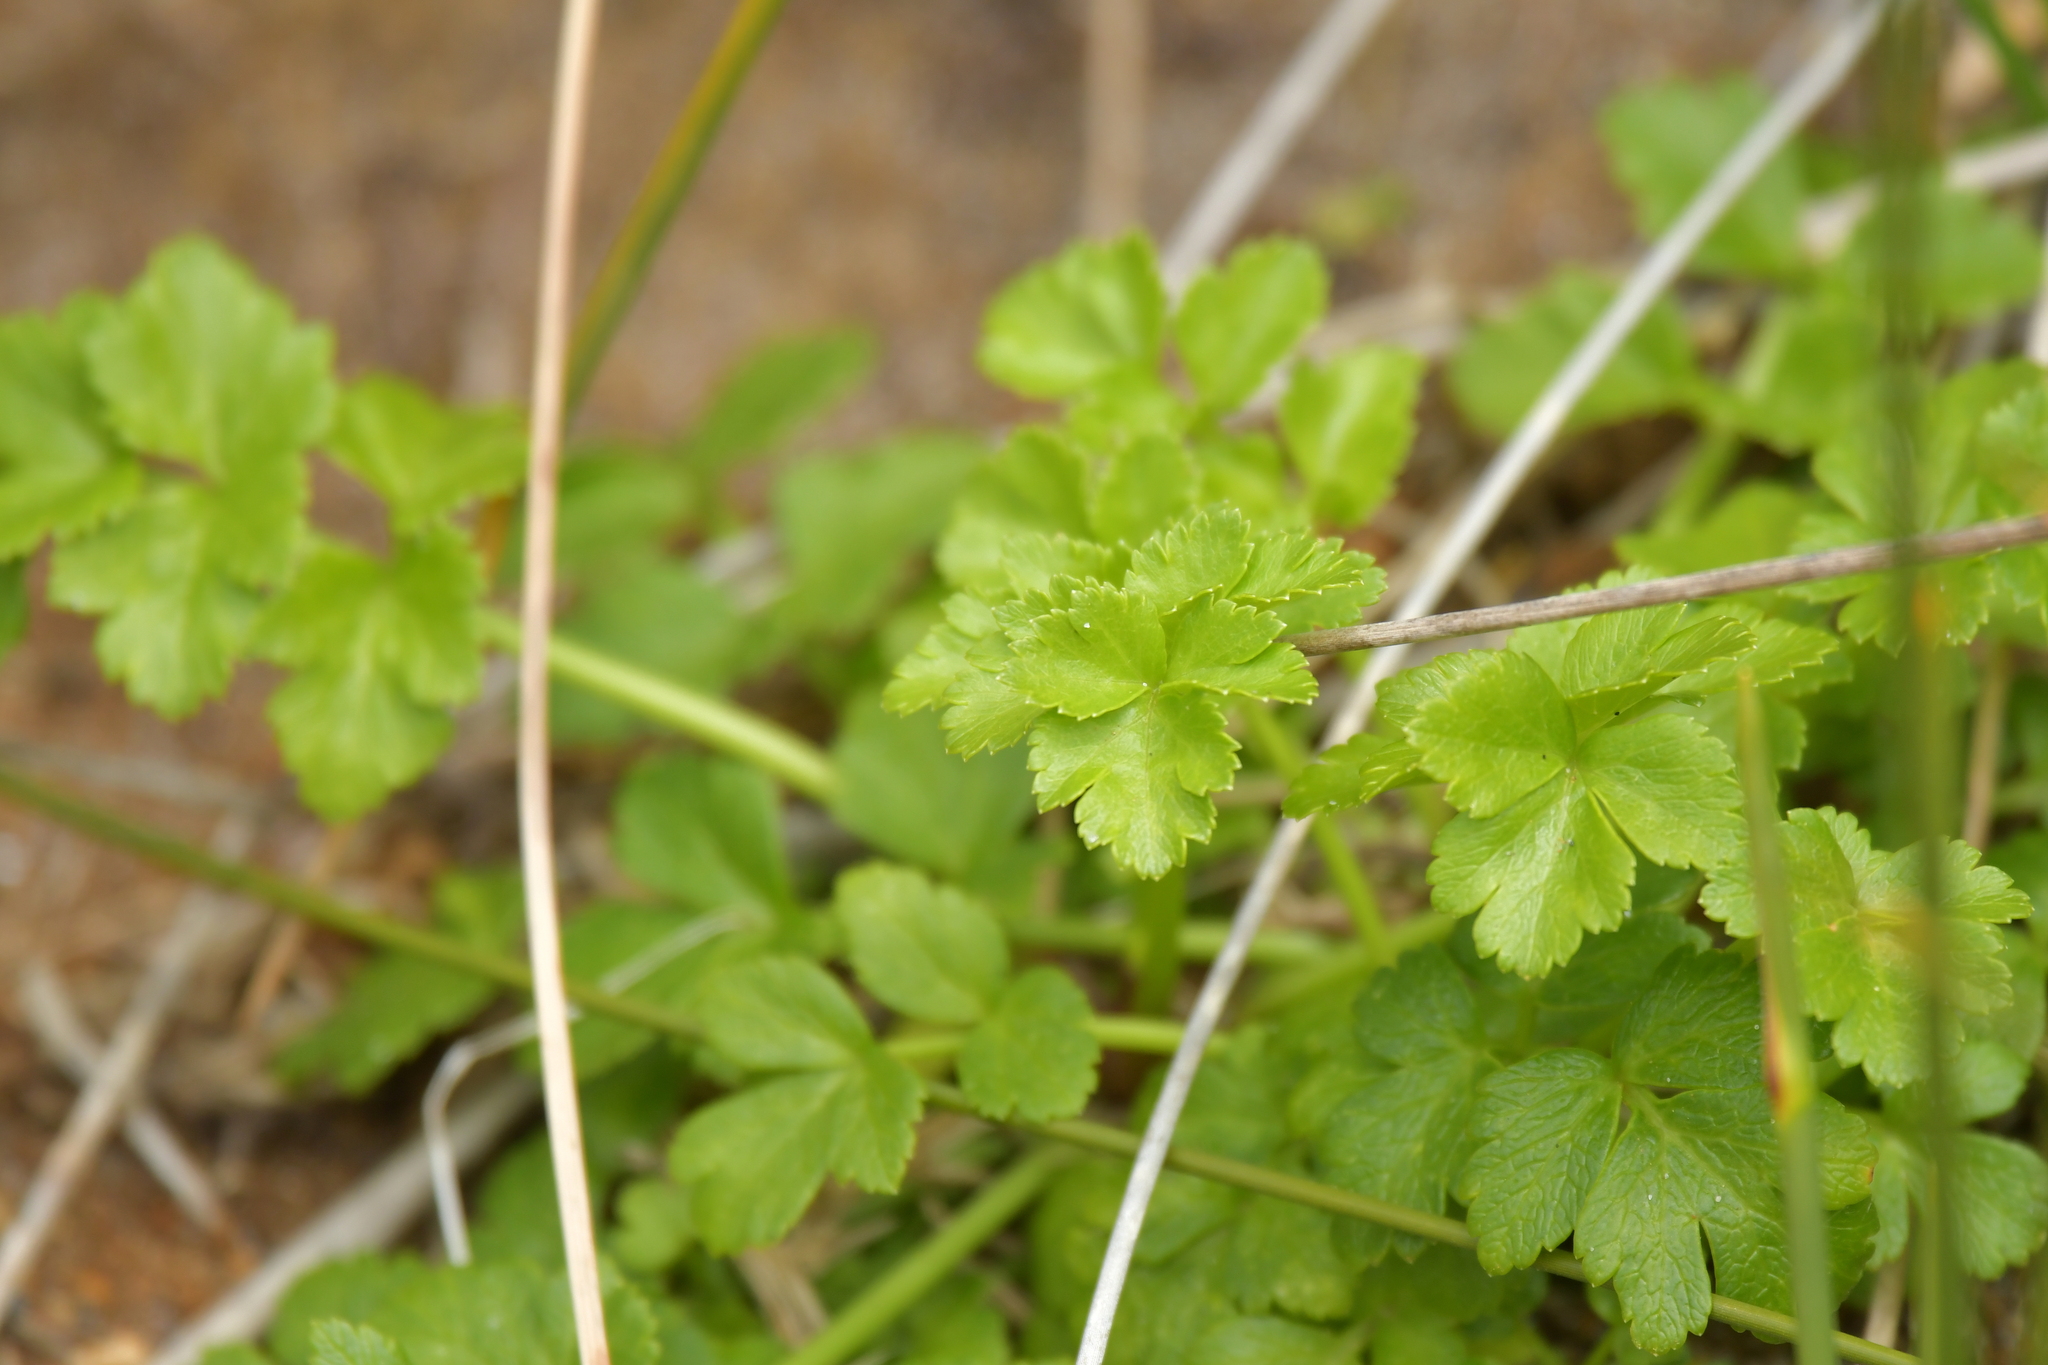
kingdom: Plantae
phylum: Tracheophyta
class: Magnoliopsida
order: Apiales
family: Apiaceae
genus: Apium
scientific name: Apium prostratum
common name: Prostrate marshwort
